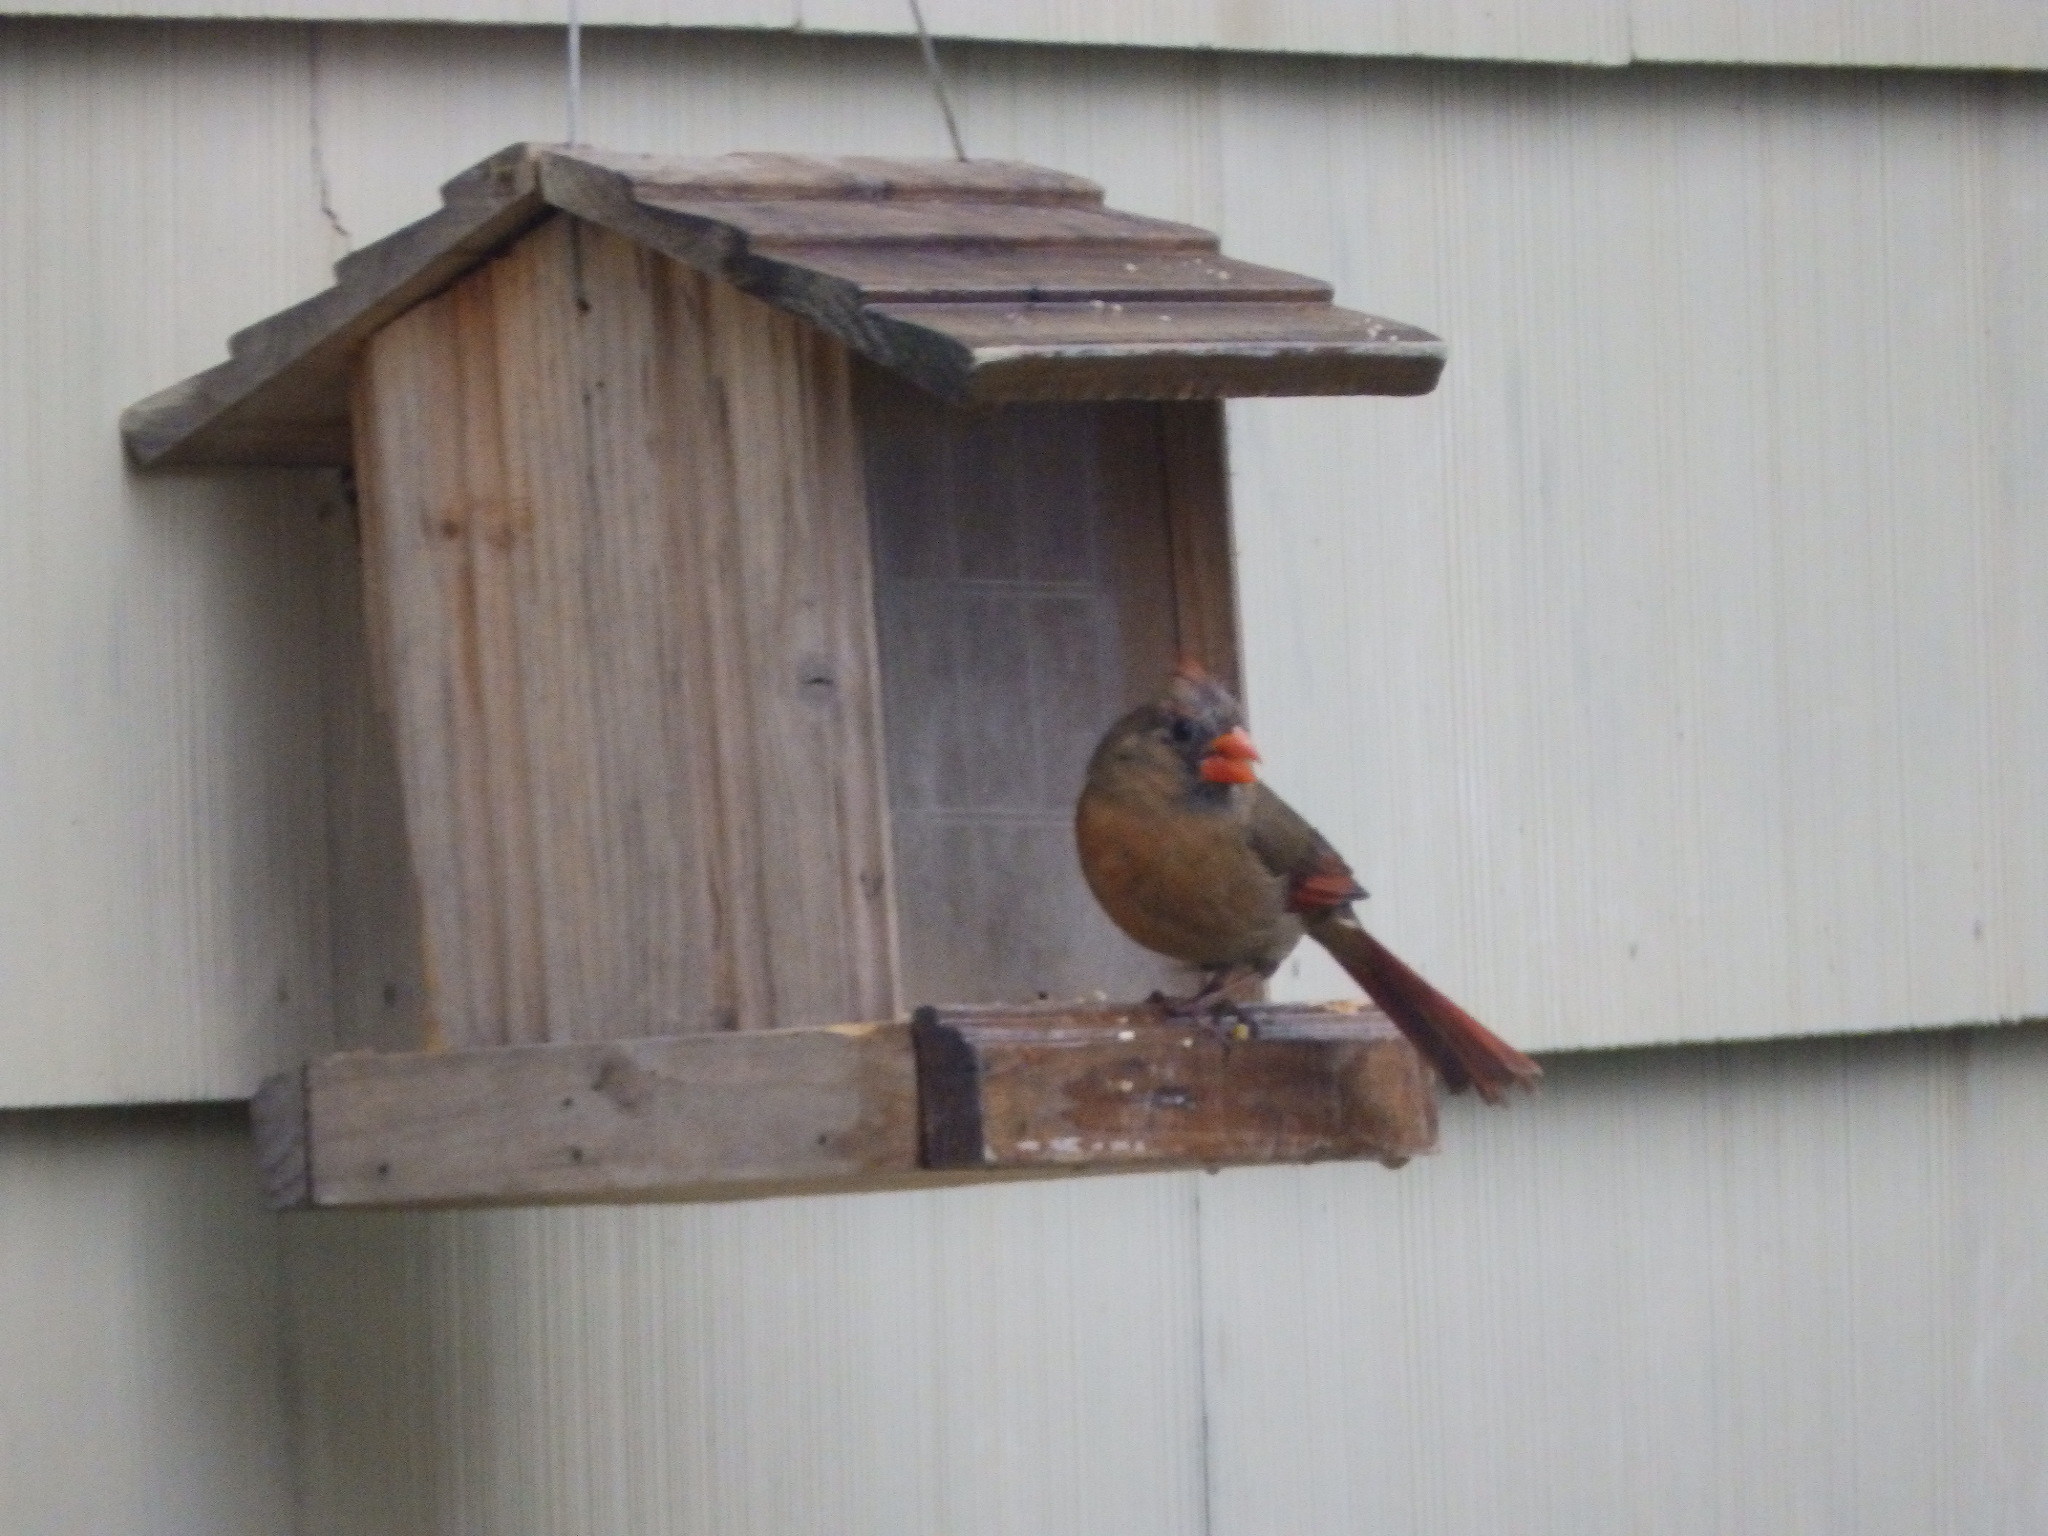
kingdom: Animalia
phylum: Chordata
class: Aves
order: Passeriformes
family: Cardinalidae
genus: Cardinalis
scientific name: Cardinalis cardinalis
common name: Northern cardinal
